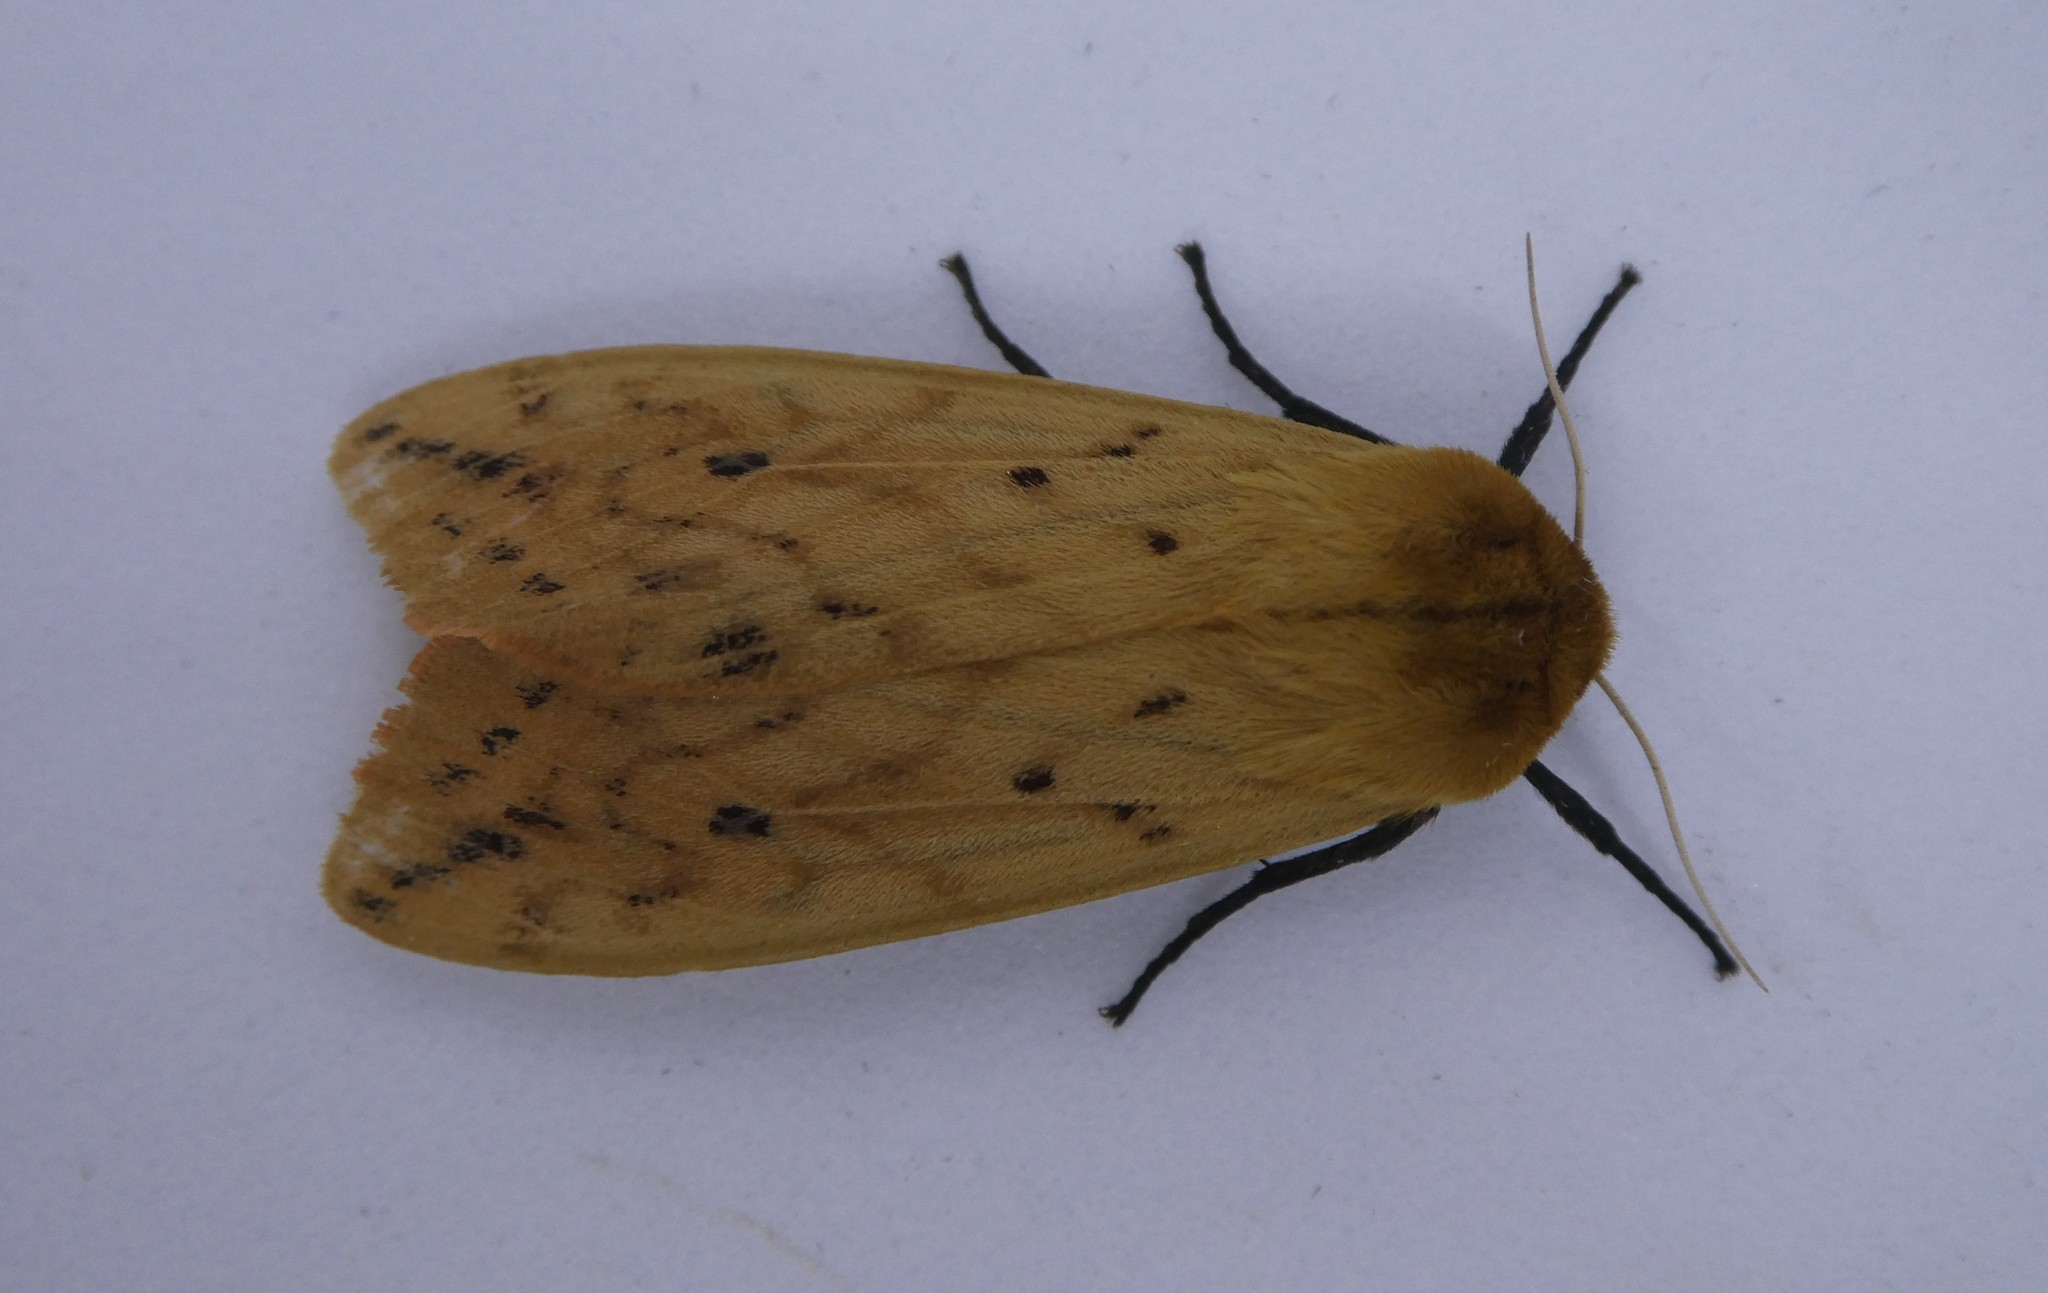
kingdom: Animalia
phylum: Arthropoda
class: Insecta
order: Lepidoptera
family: Erebidae
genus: Pyrrharctia
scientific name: Pyrrharctia isabella
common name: Isabella tiger moth
